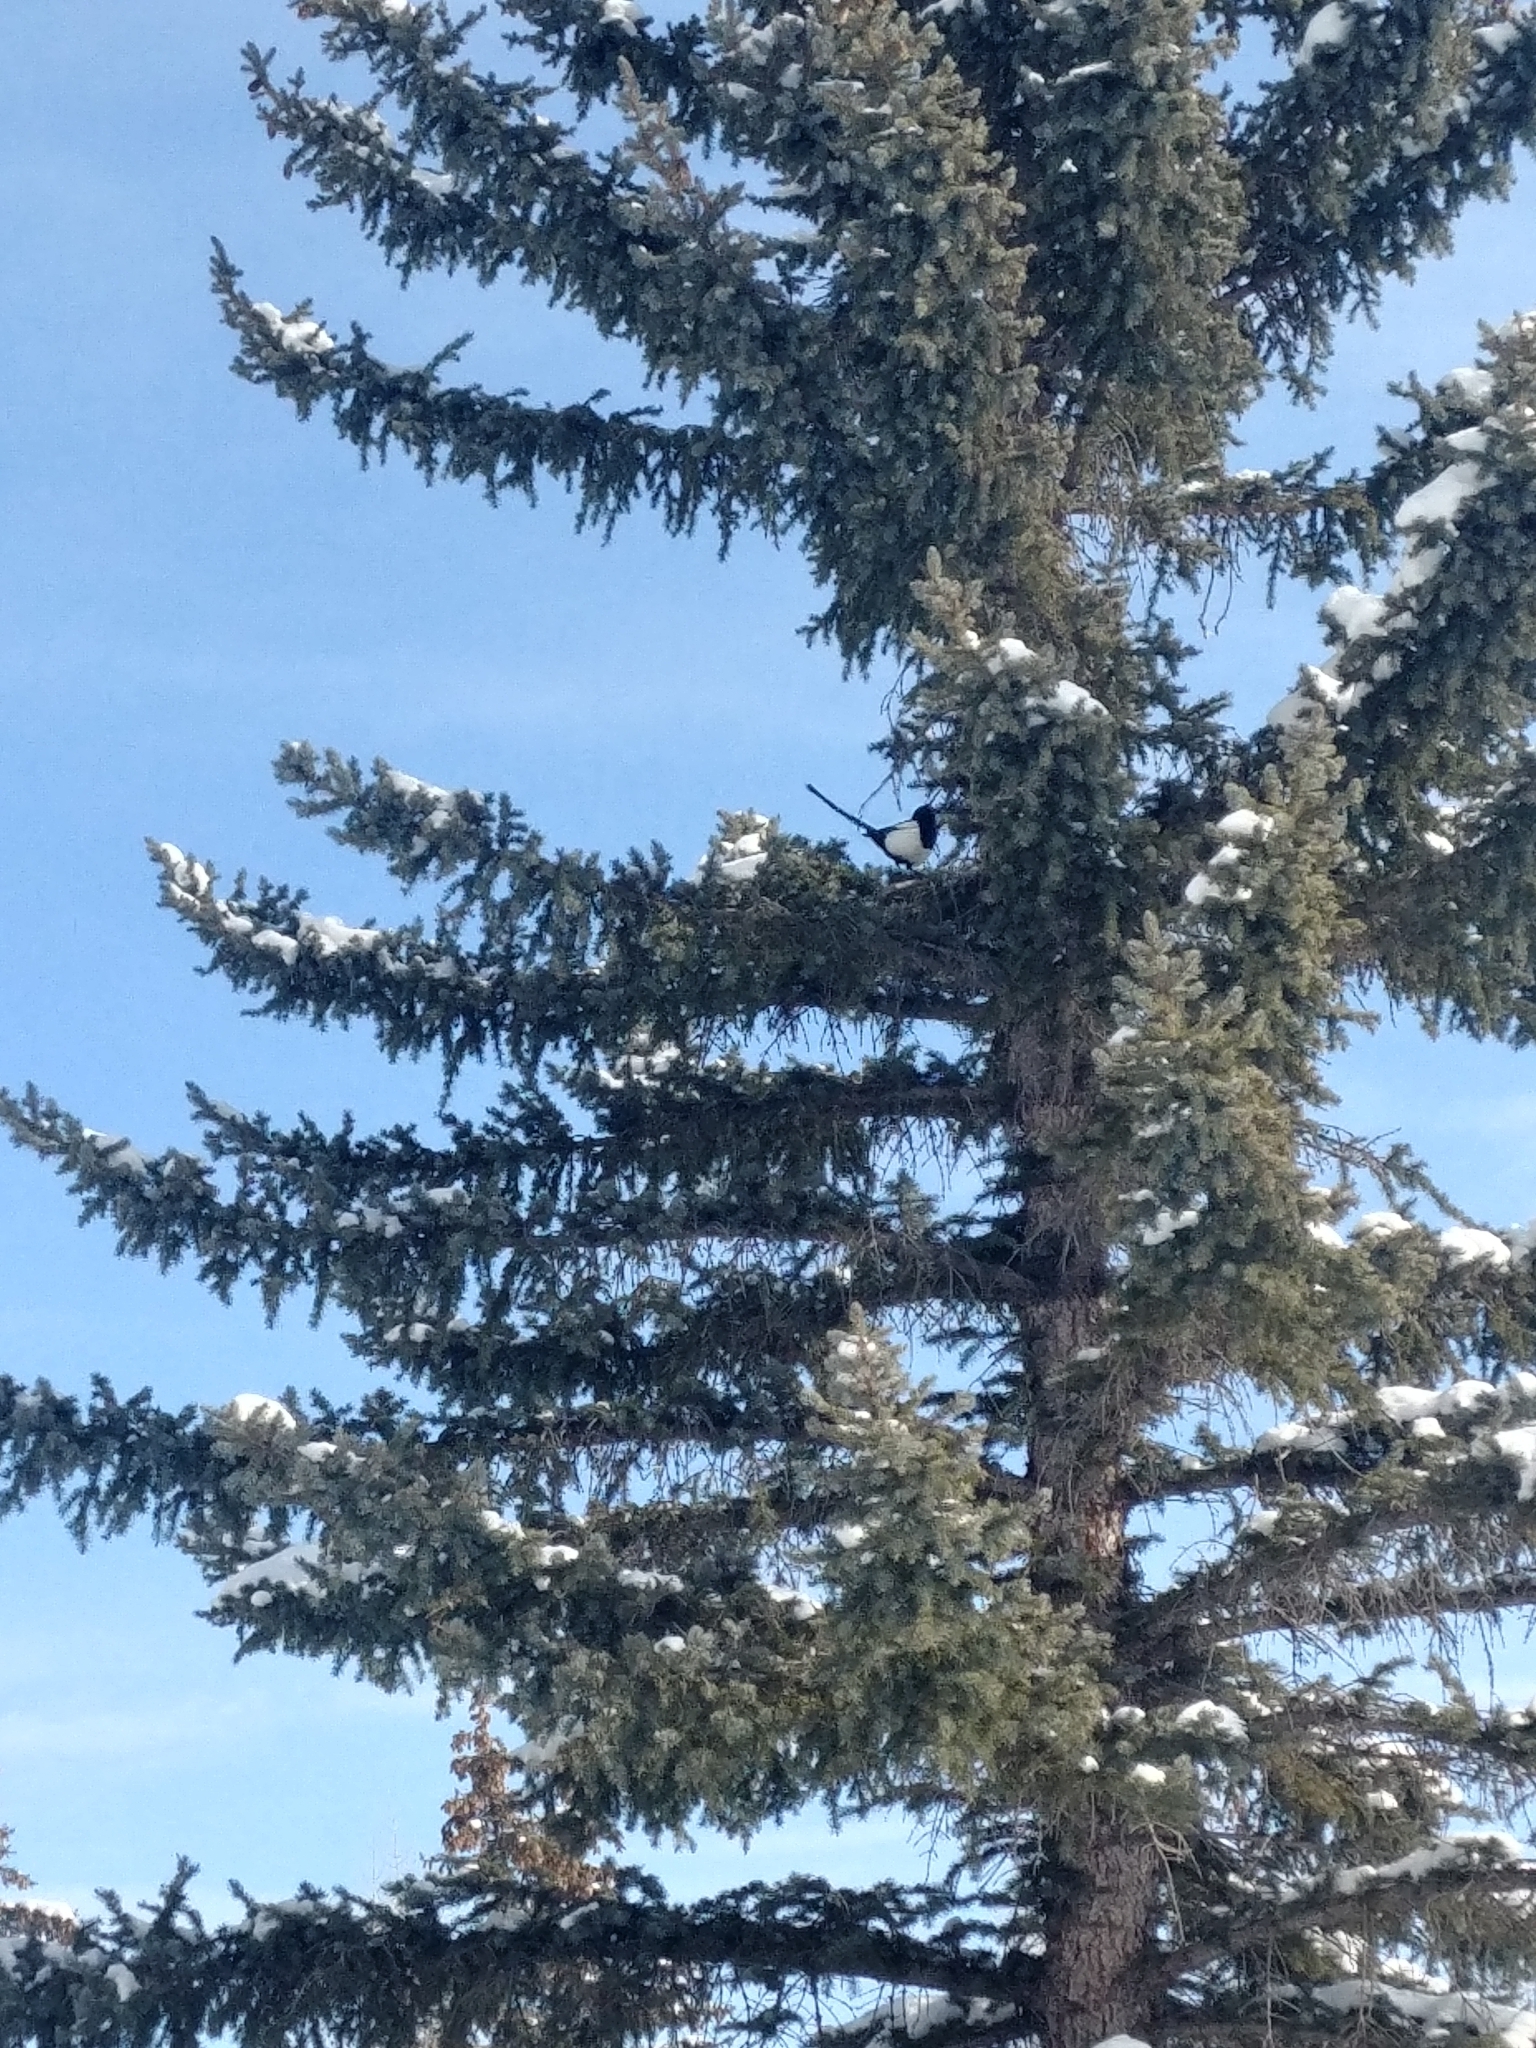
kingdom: Animalia
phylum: Chordata
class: Aves
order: Passeriformes
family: Corvidae
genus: Pica
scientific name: Pica hudsonia
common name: Black-billed magpie
